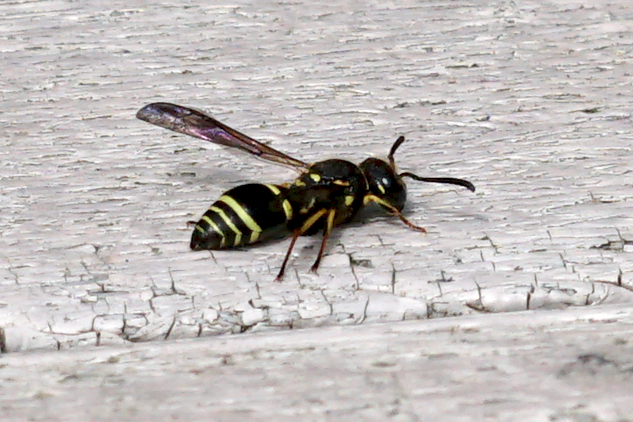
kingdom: Animalia
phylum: Arthropoda
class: Insecta
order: Hymenoptera
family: Vespidae
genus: Ancistrocerus
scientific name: Ancistrocerus catskill
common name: Vespid wasp
